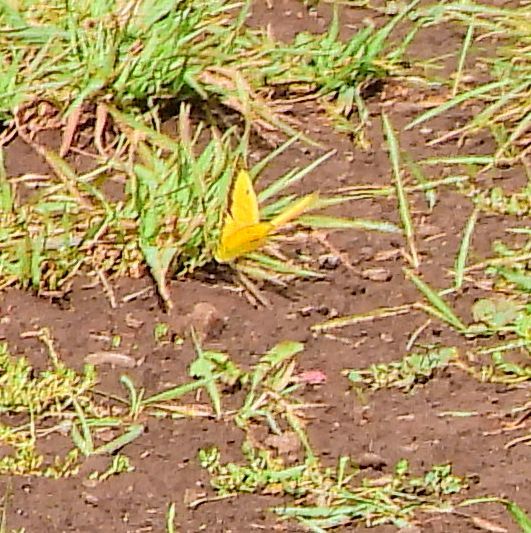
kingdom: Animalia
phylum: Arthropoda
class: Insecta
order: Lepidoptera
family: Pieridae
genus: Colias
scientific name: Colias eurytheme
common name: Alfalfa butterfly
